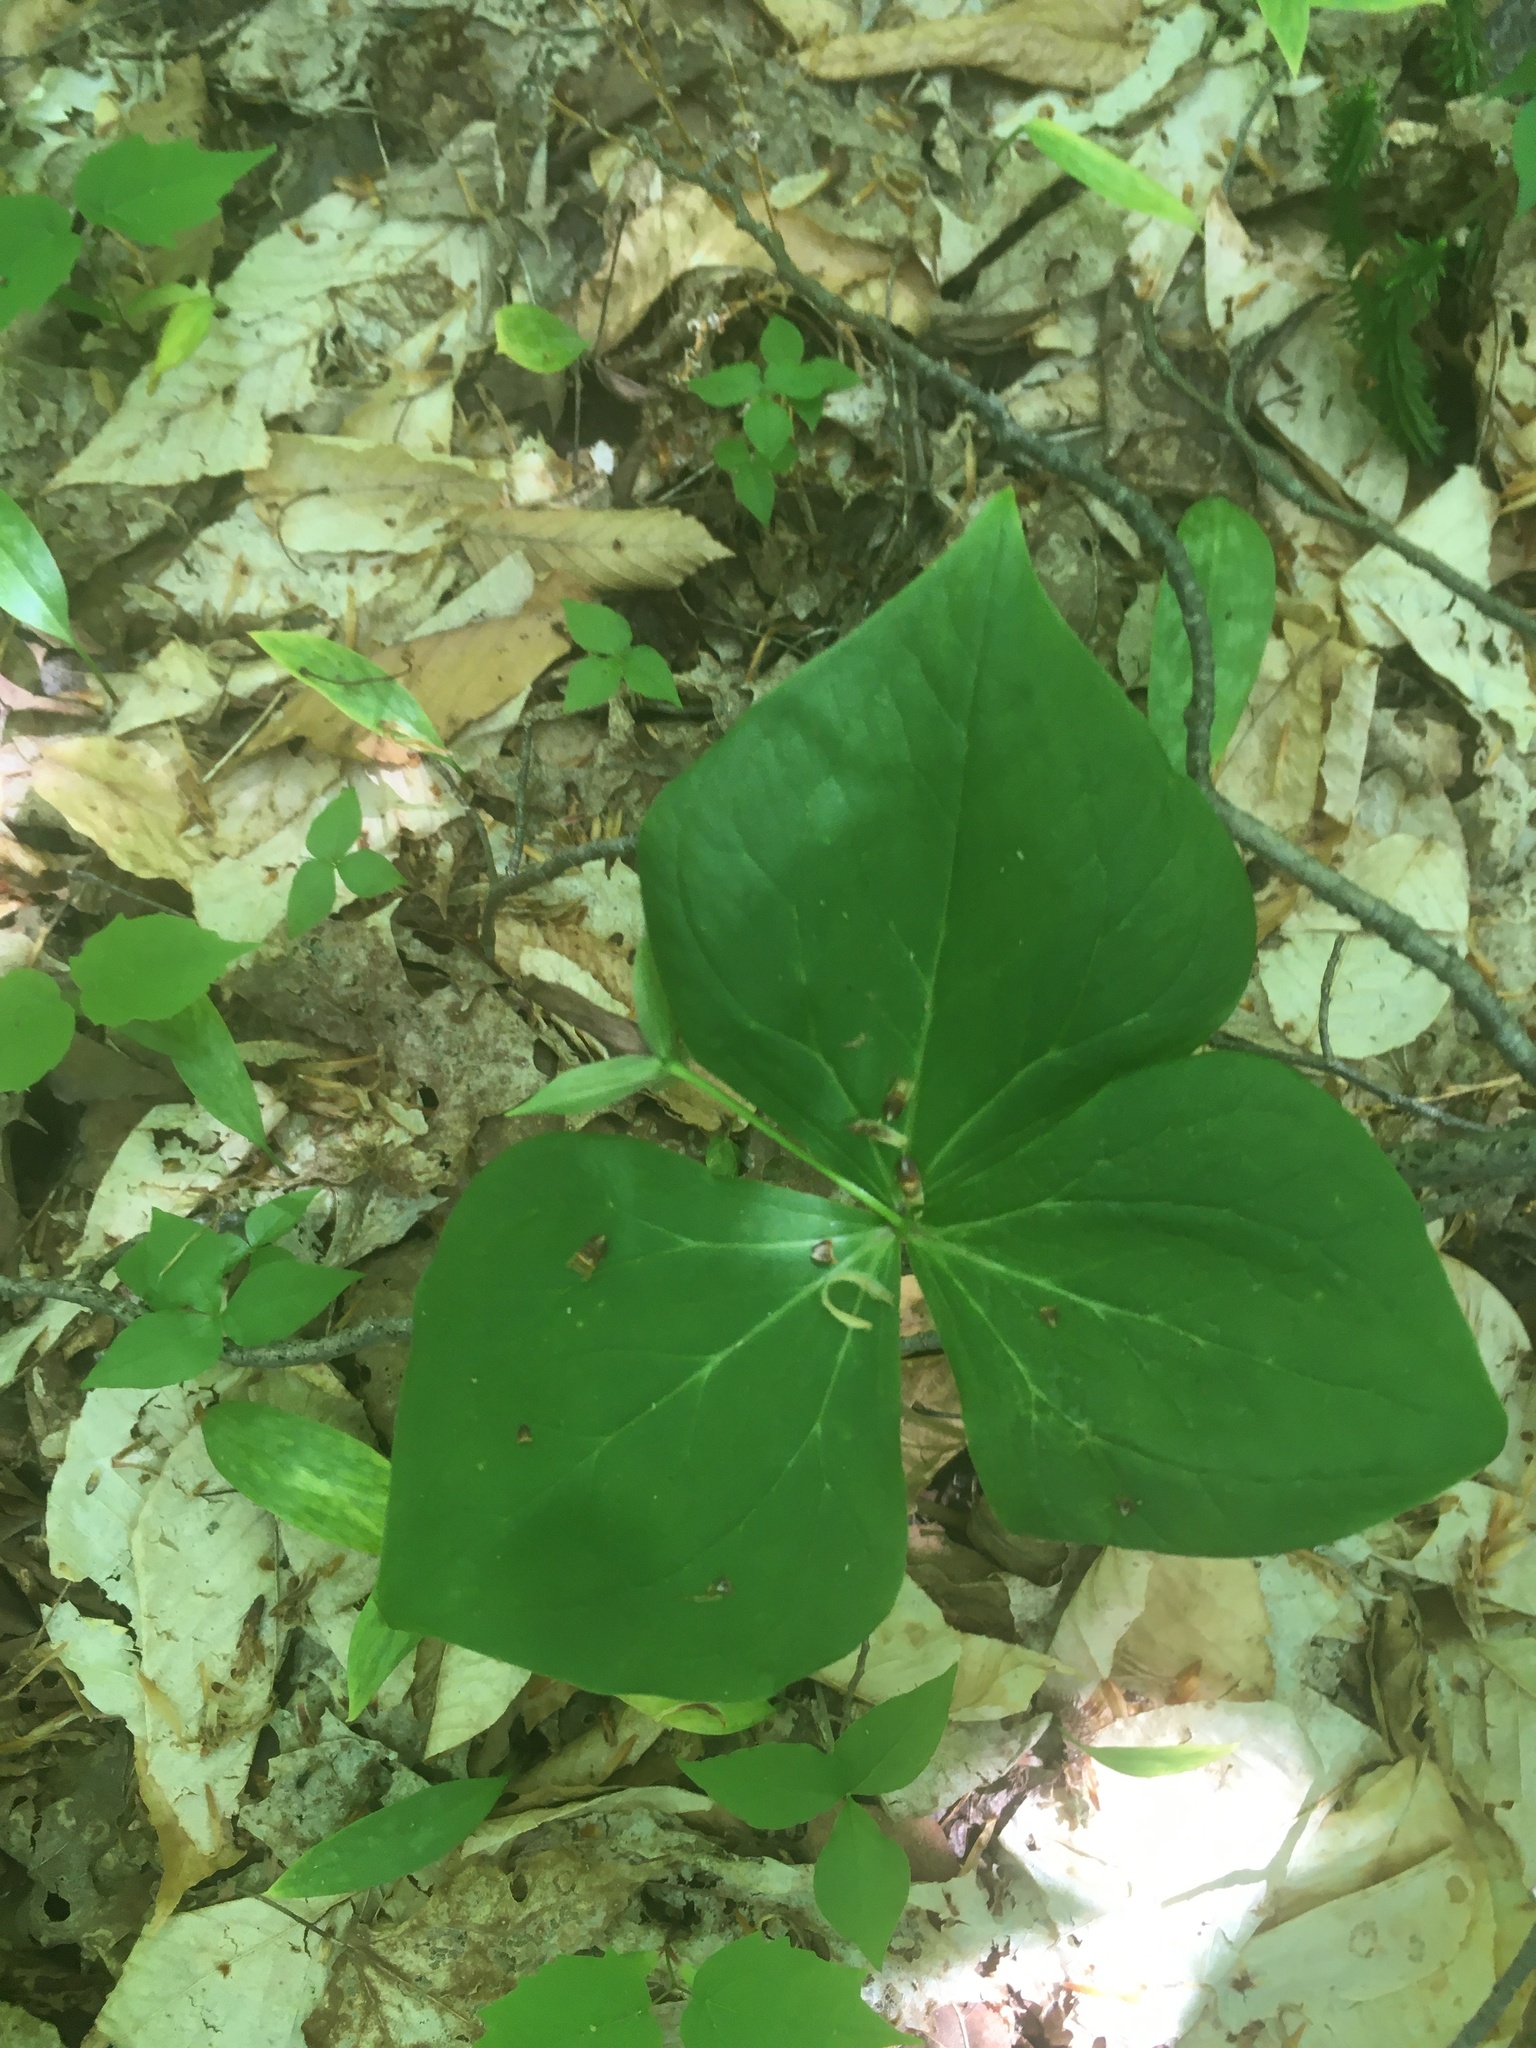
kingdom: Plantae
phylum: Tracheophyta
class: Liliopsida
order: Liliales
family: Melanthiaceae
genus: Trillium
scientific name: Trillium erectum
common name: Purple trillium
